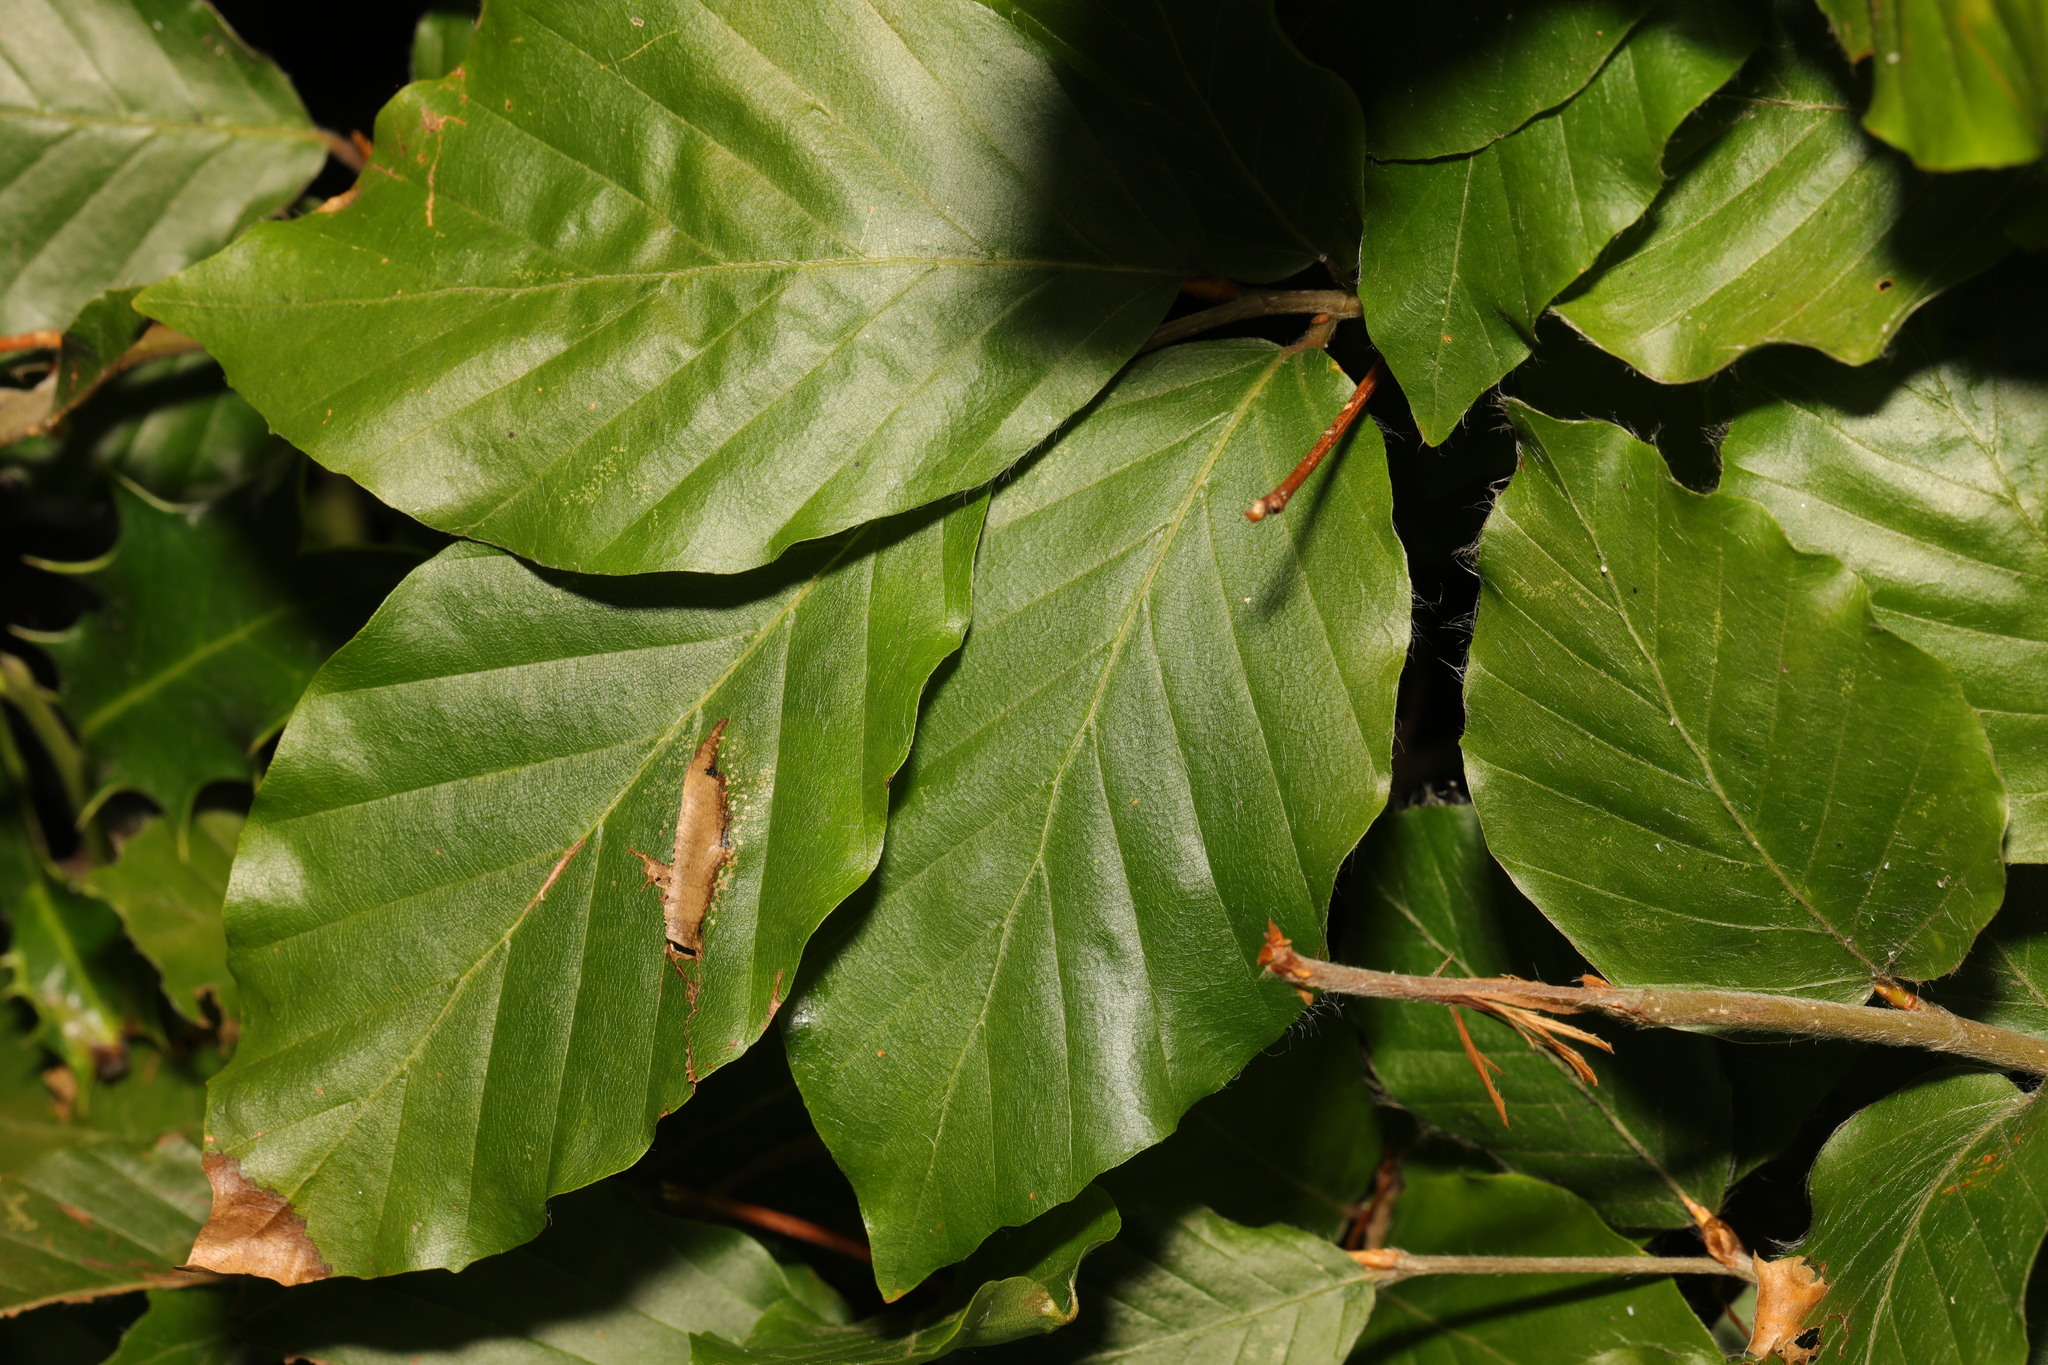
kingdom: Plantae
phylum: Tracheophyta
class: Magnoliopsida
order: Fagales
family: Fagaceae
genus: Fagus
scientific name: Fagus sylvatica
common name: Beech
